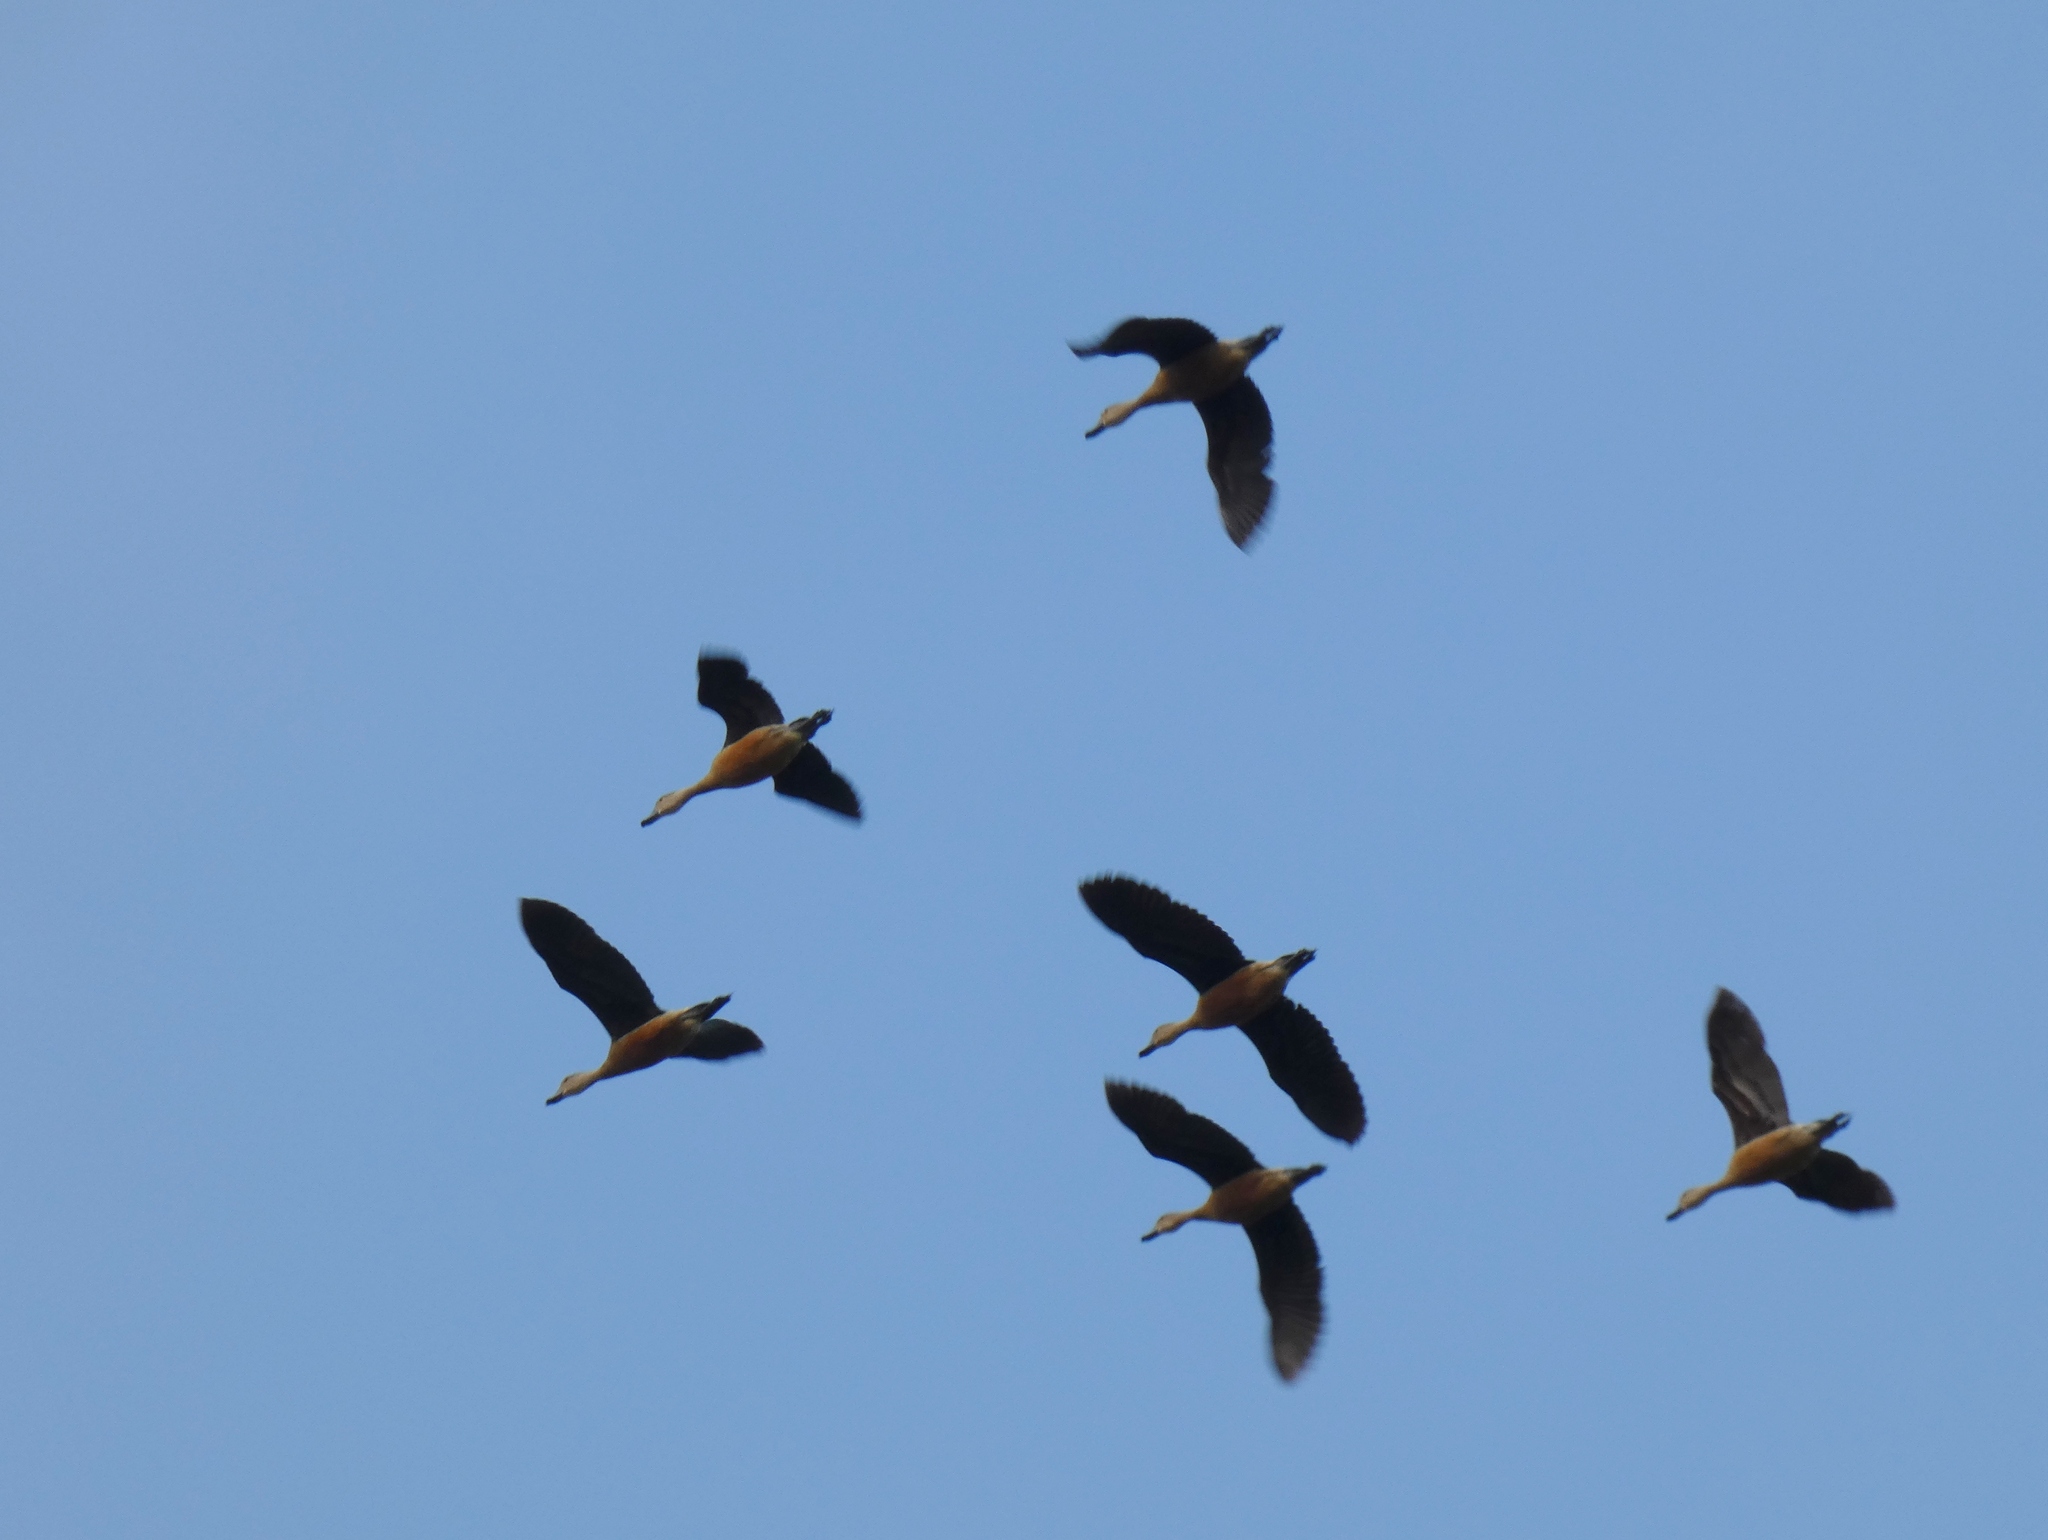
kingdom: Animalia
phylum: Chordata
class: Aves
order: Anseriformes
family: Anatidae
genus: Dendrocygna
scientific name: Dendrocygna javanica
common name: Lesser whistling-duck
